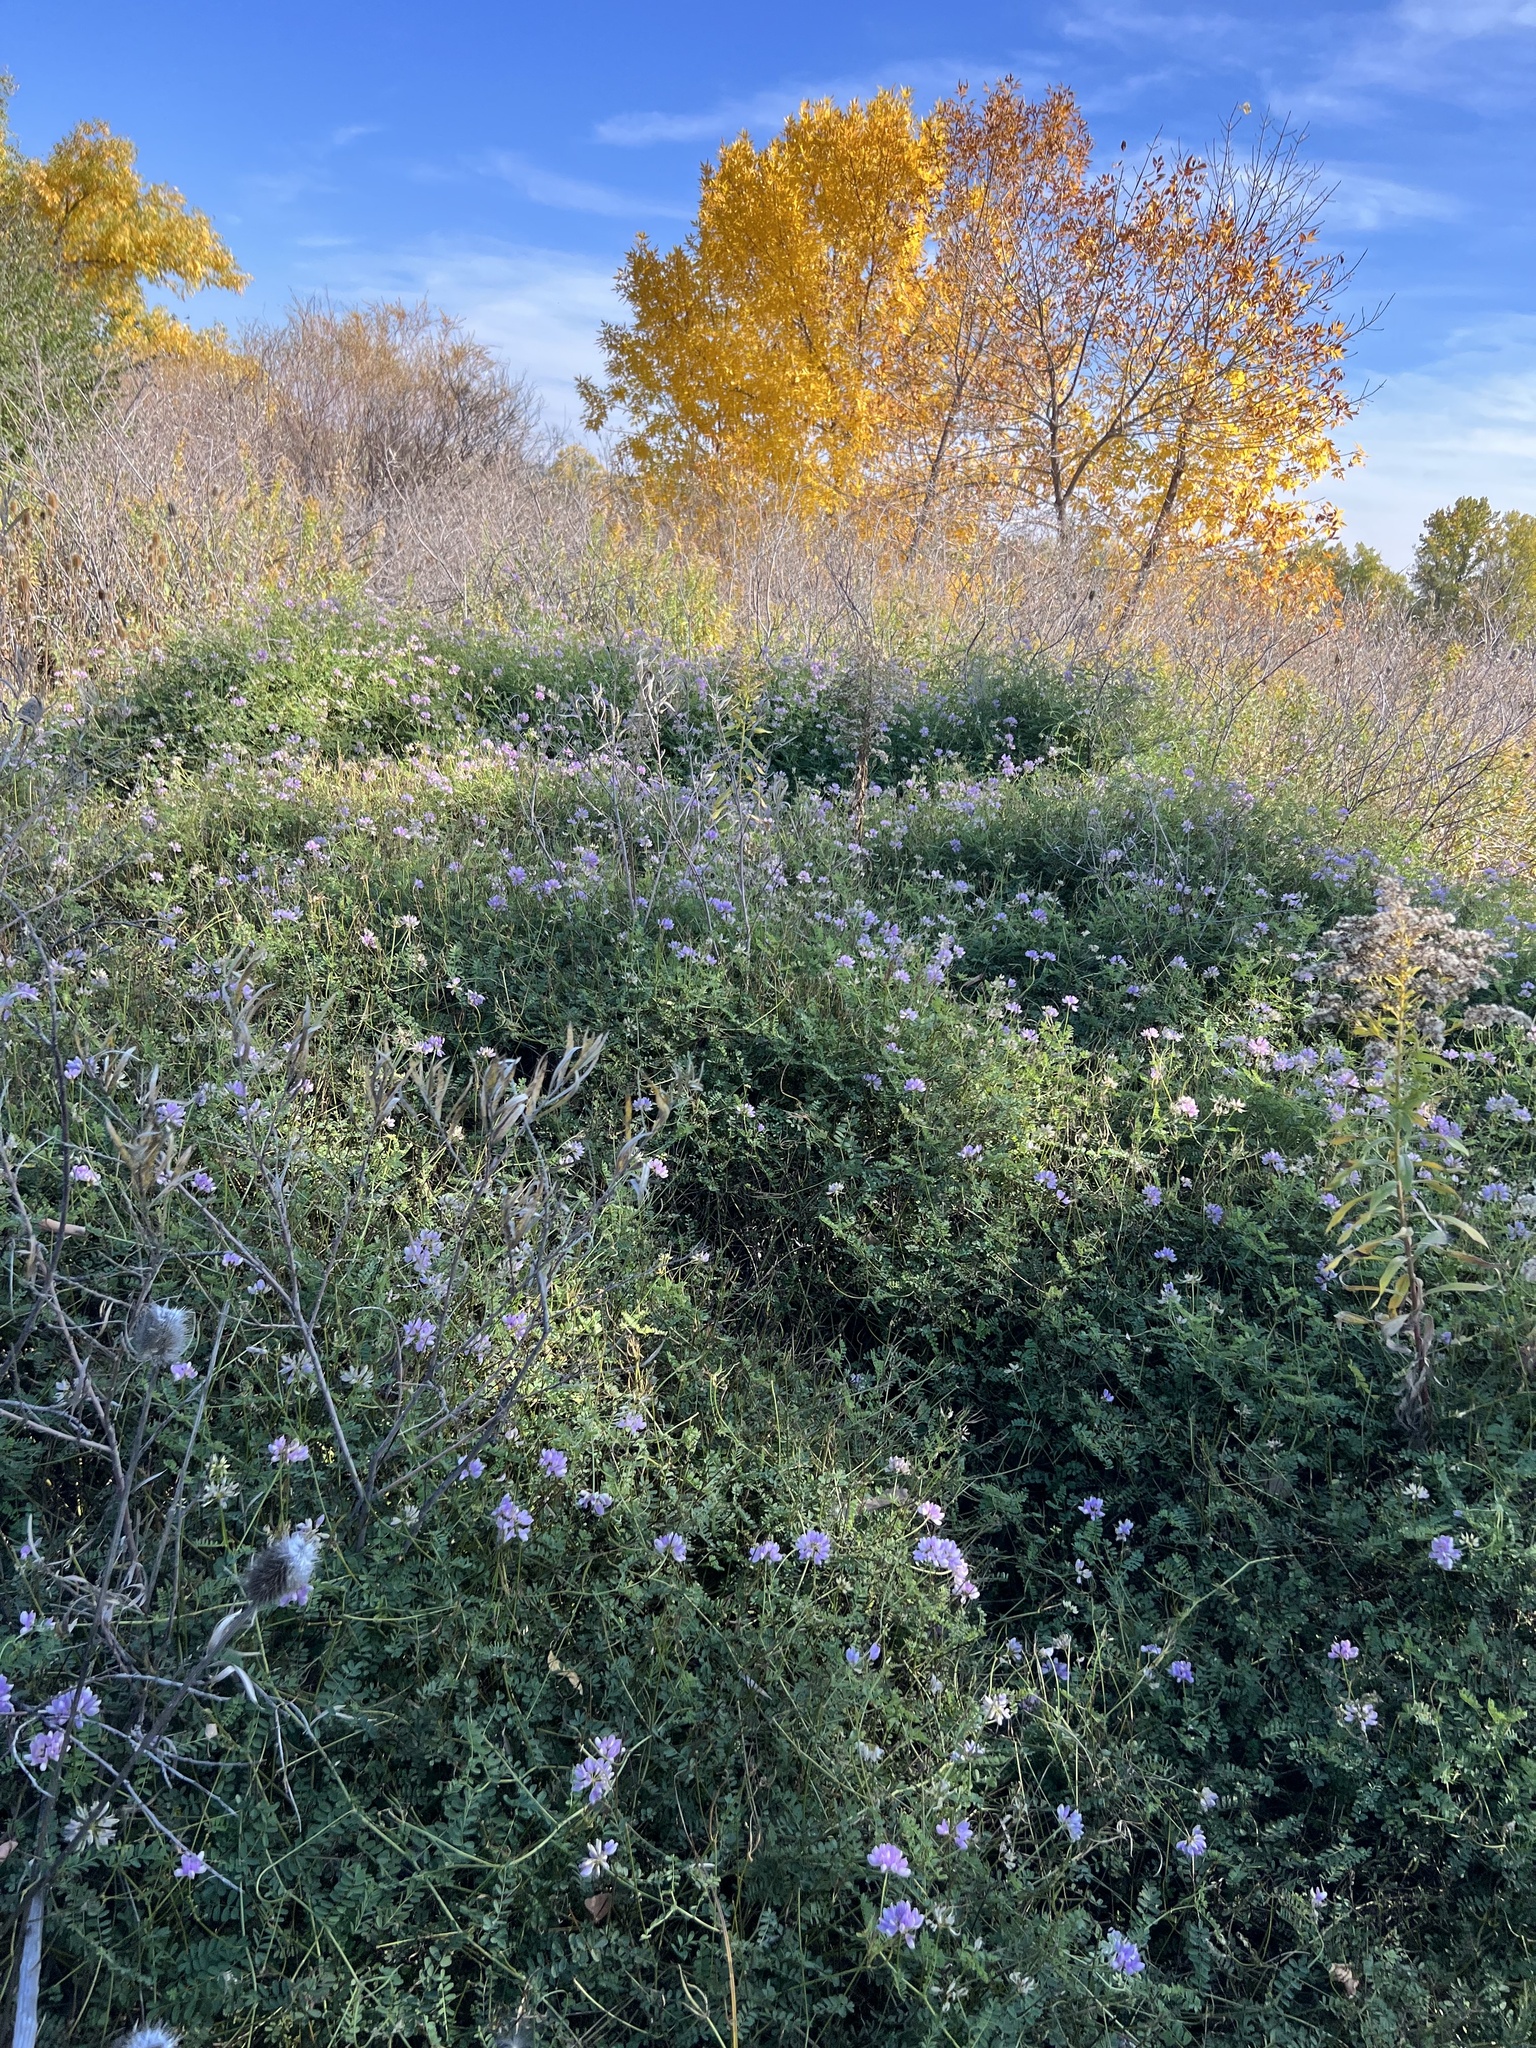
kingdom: Plantae
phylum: Tracheophyta
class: Magnoliopsida
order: Fabales
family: Fabaceae
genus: Coronilla
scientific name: Coronilla varia
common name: Crownvetch
